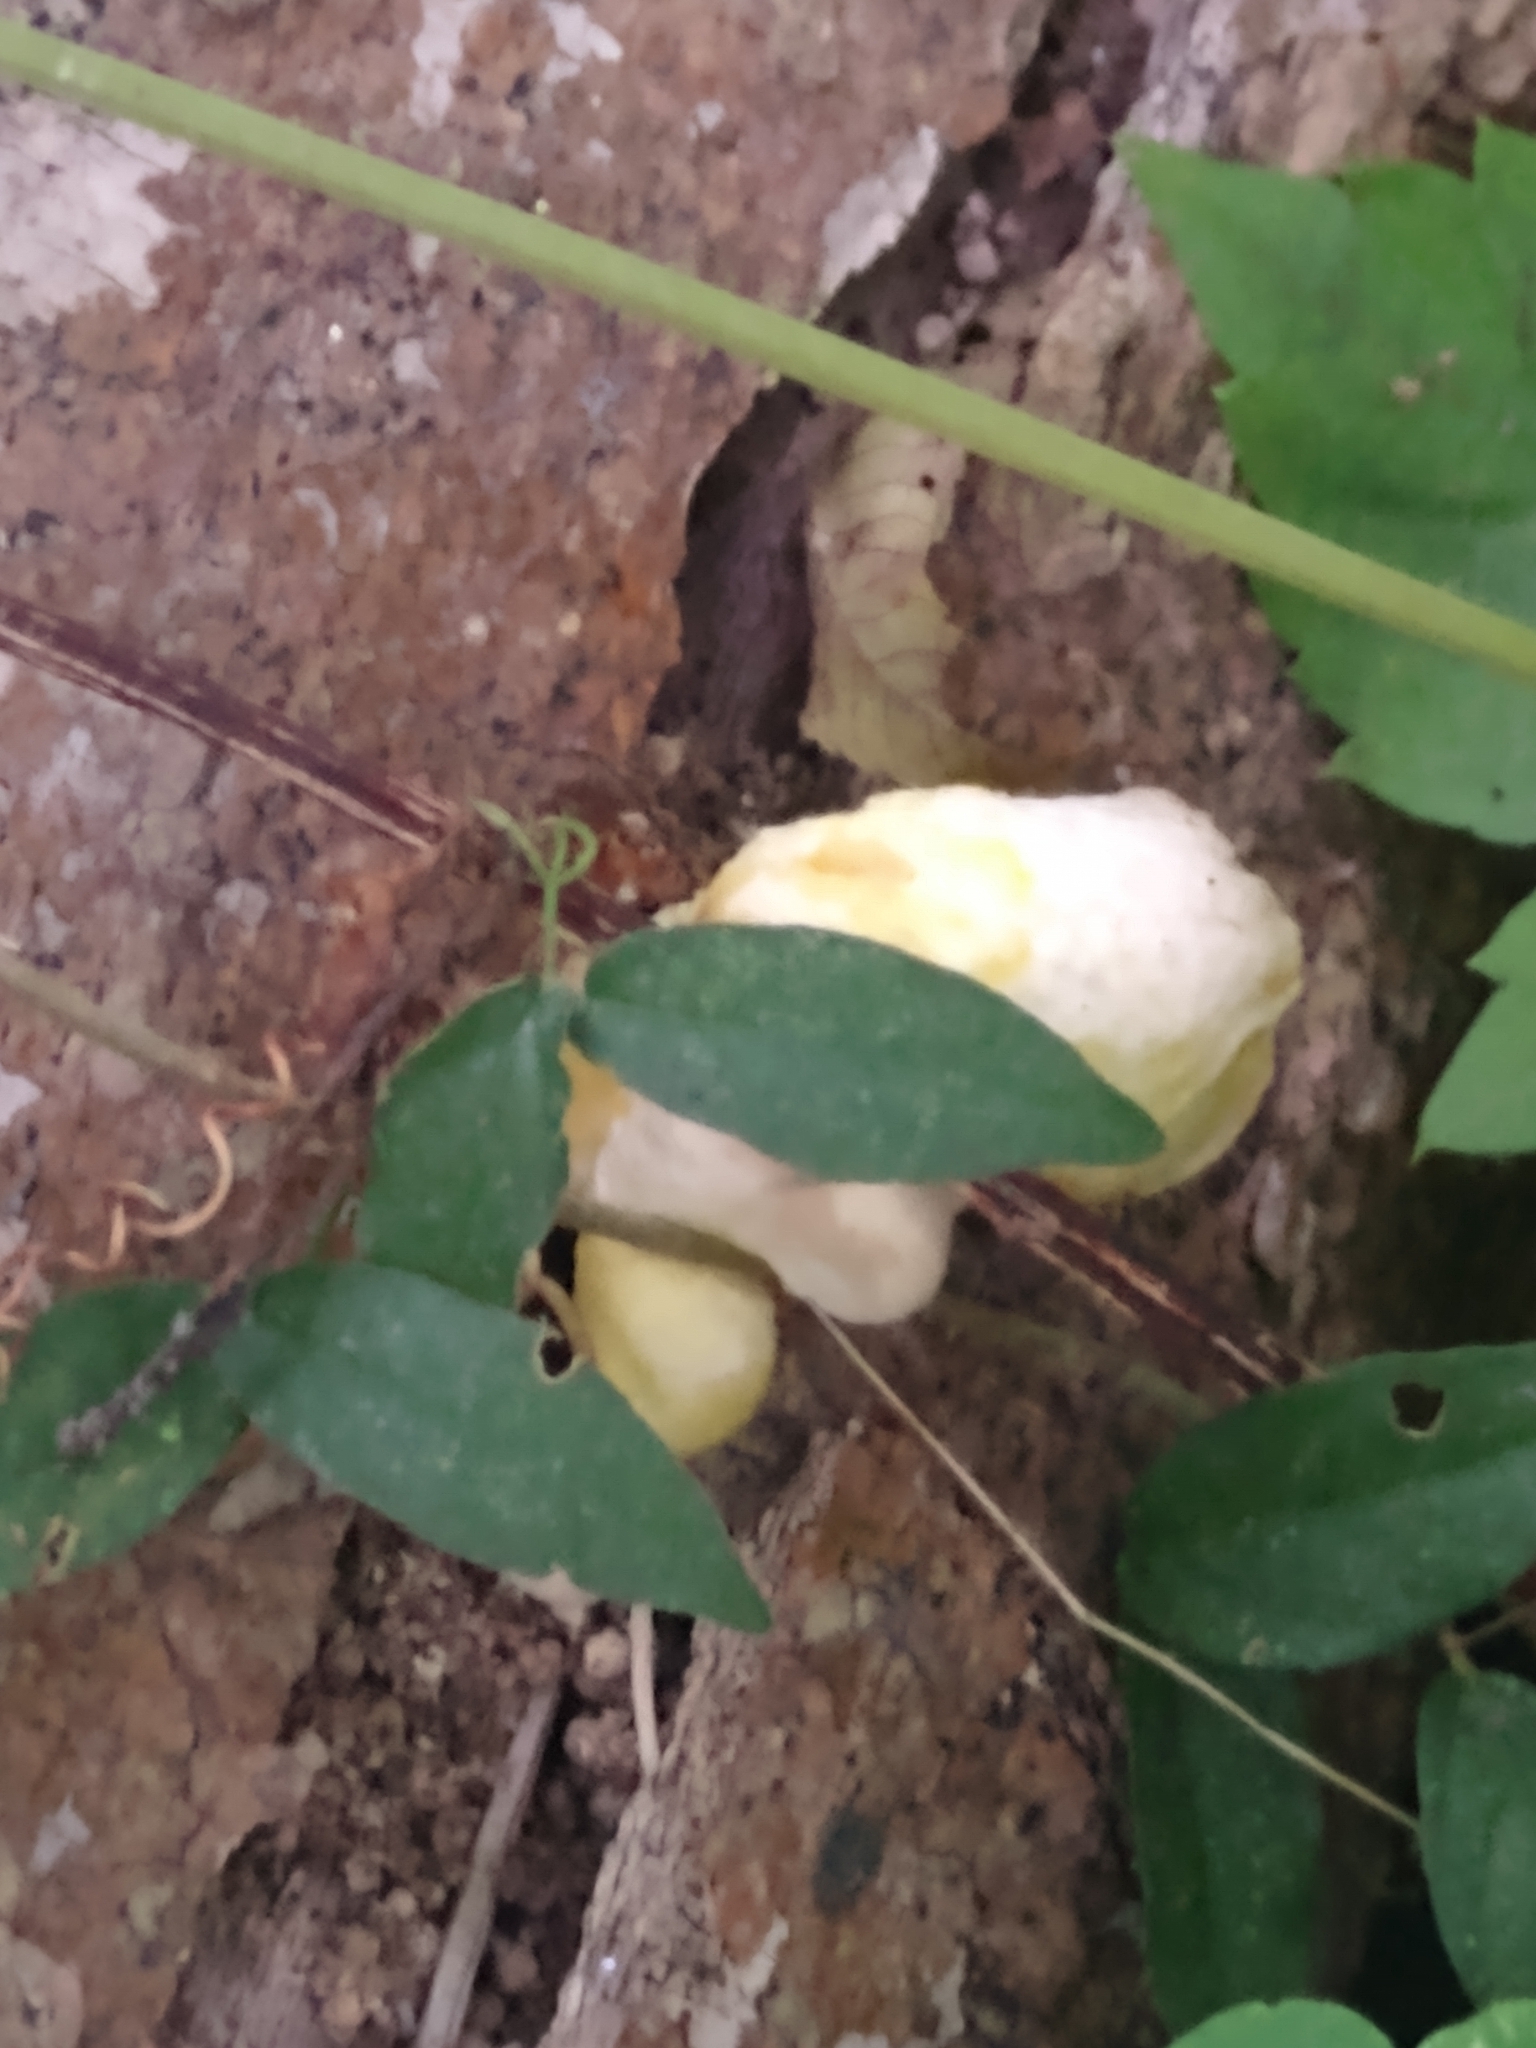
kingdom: Fungi
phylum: Basidiomycota
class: Agaricomycetes
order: Agaricales
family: Pleurotaceae
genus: Pleurotus
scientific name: Pleurotus pulmonarius
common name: Pale oyster
